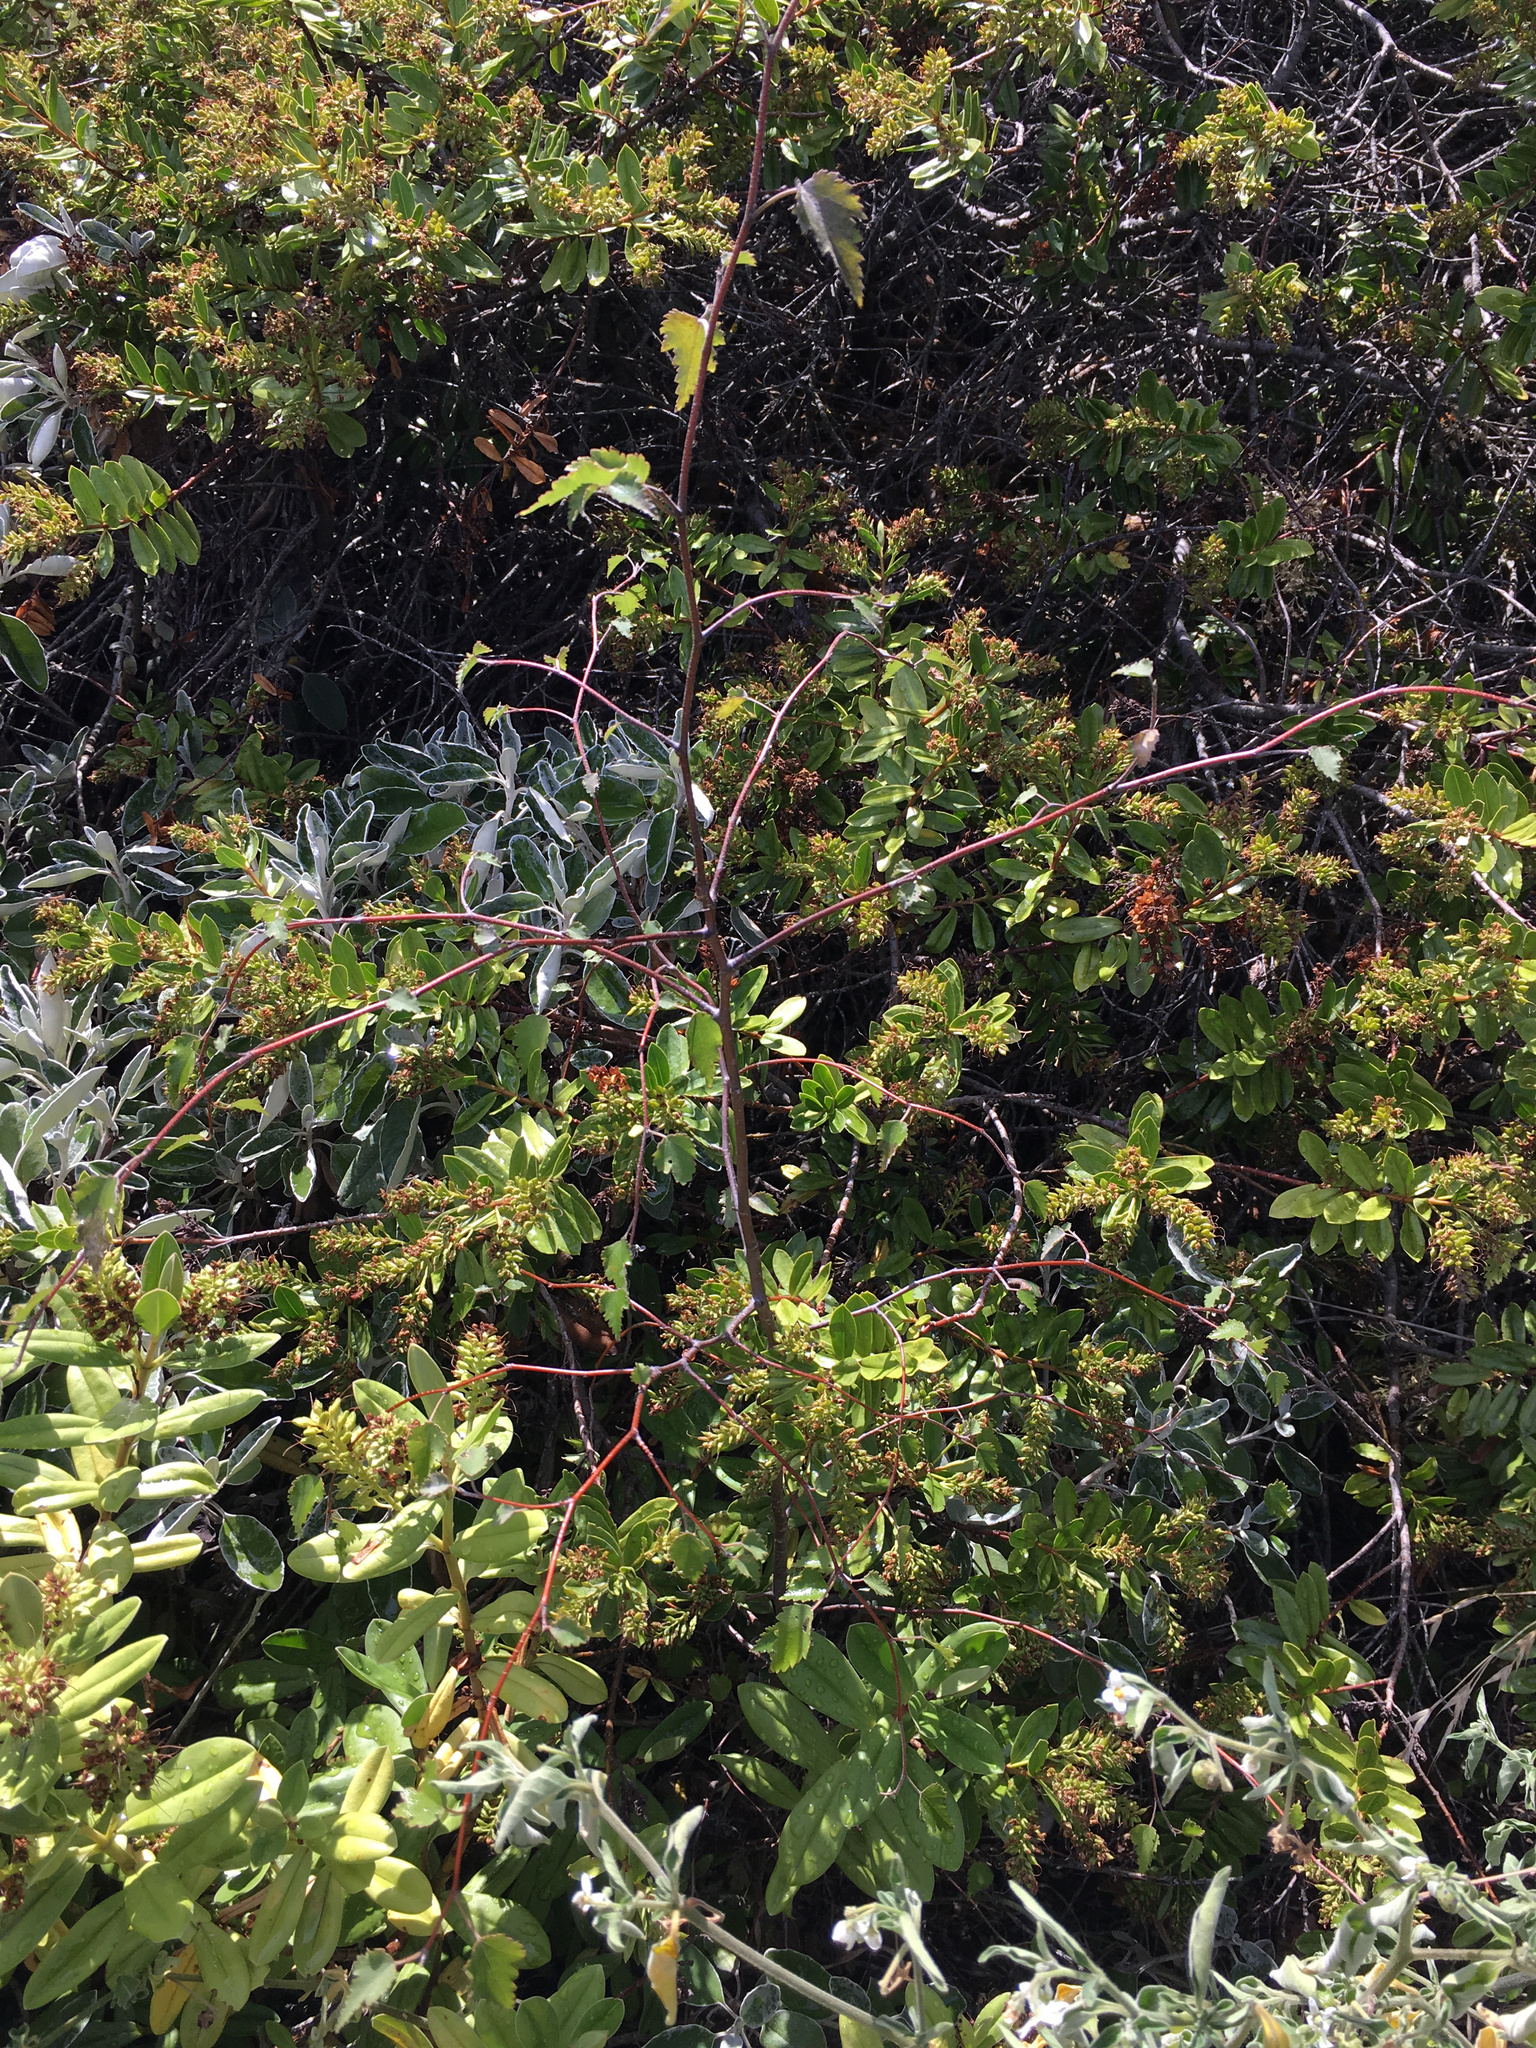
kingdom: Plantae
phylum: Tracheophyta
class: Magnoliopsida
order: Malvales
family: Malvaceae
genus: Plagianthus
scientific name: Plagianthus regius
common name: Manatu
